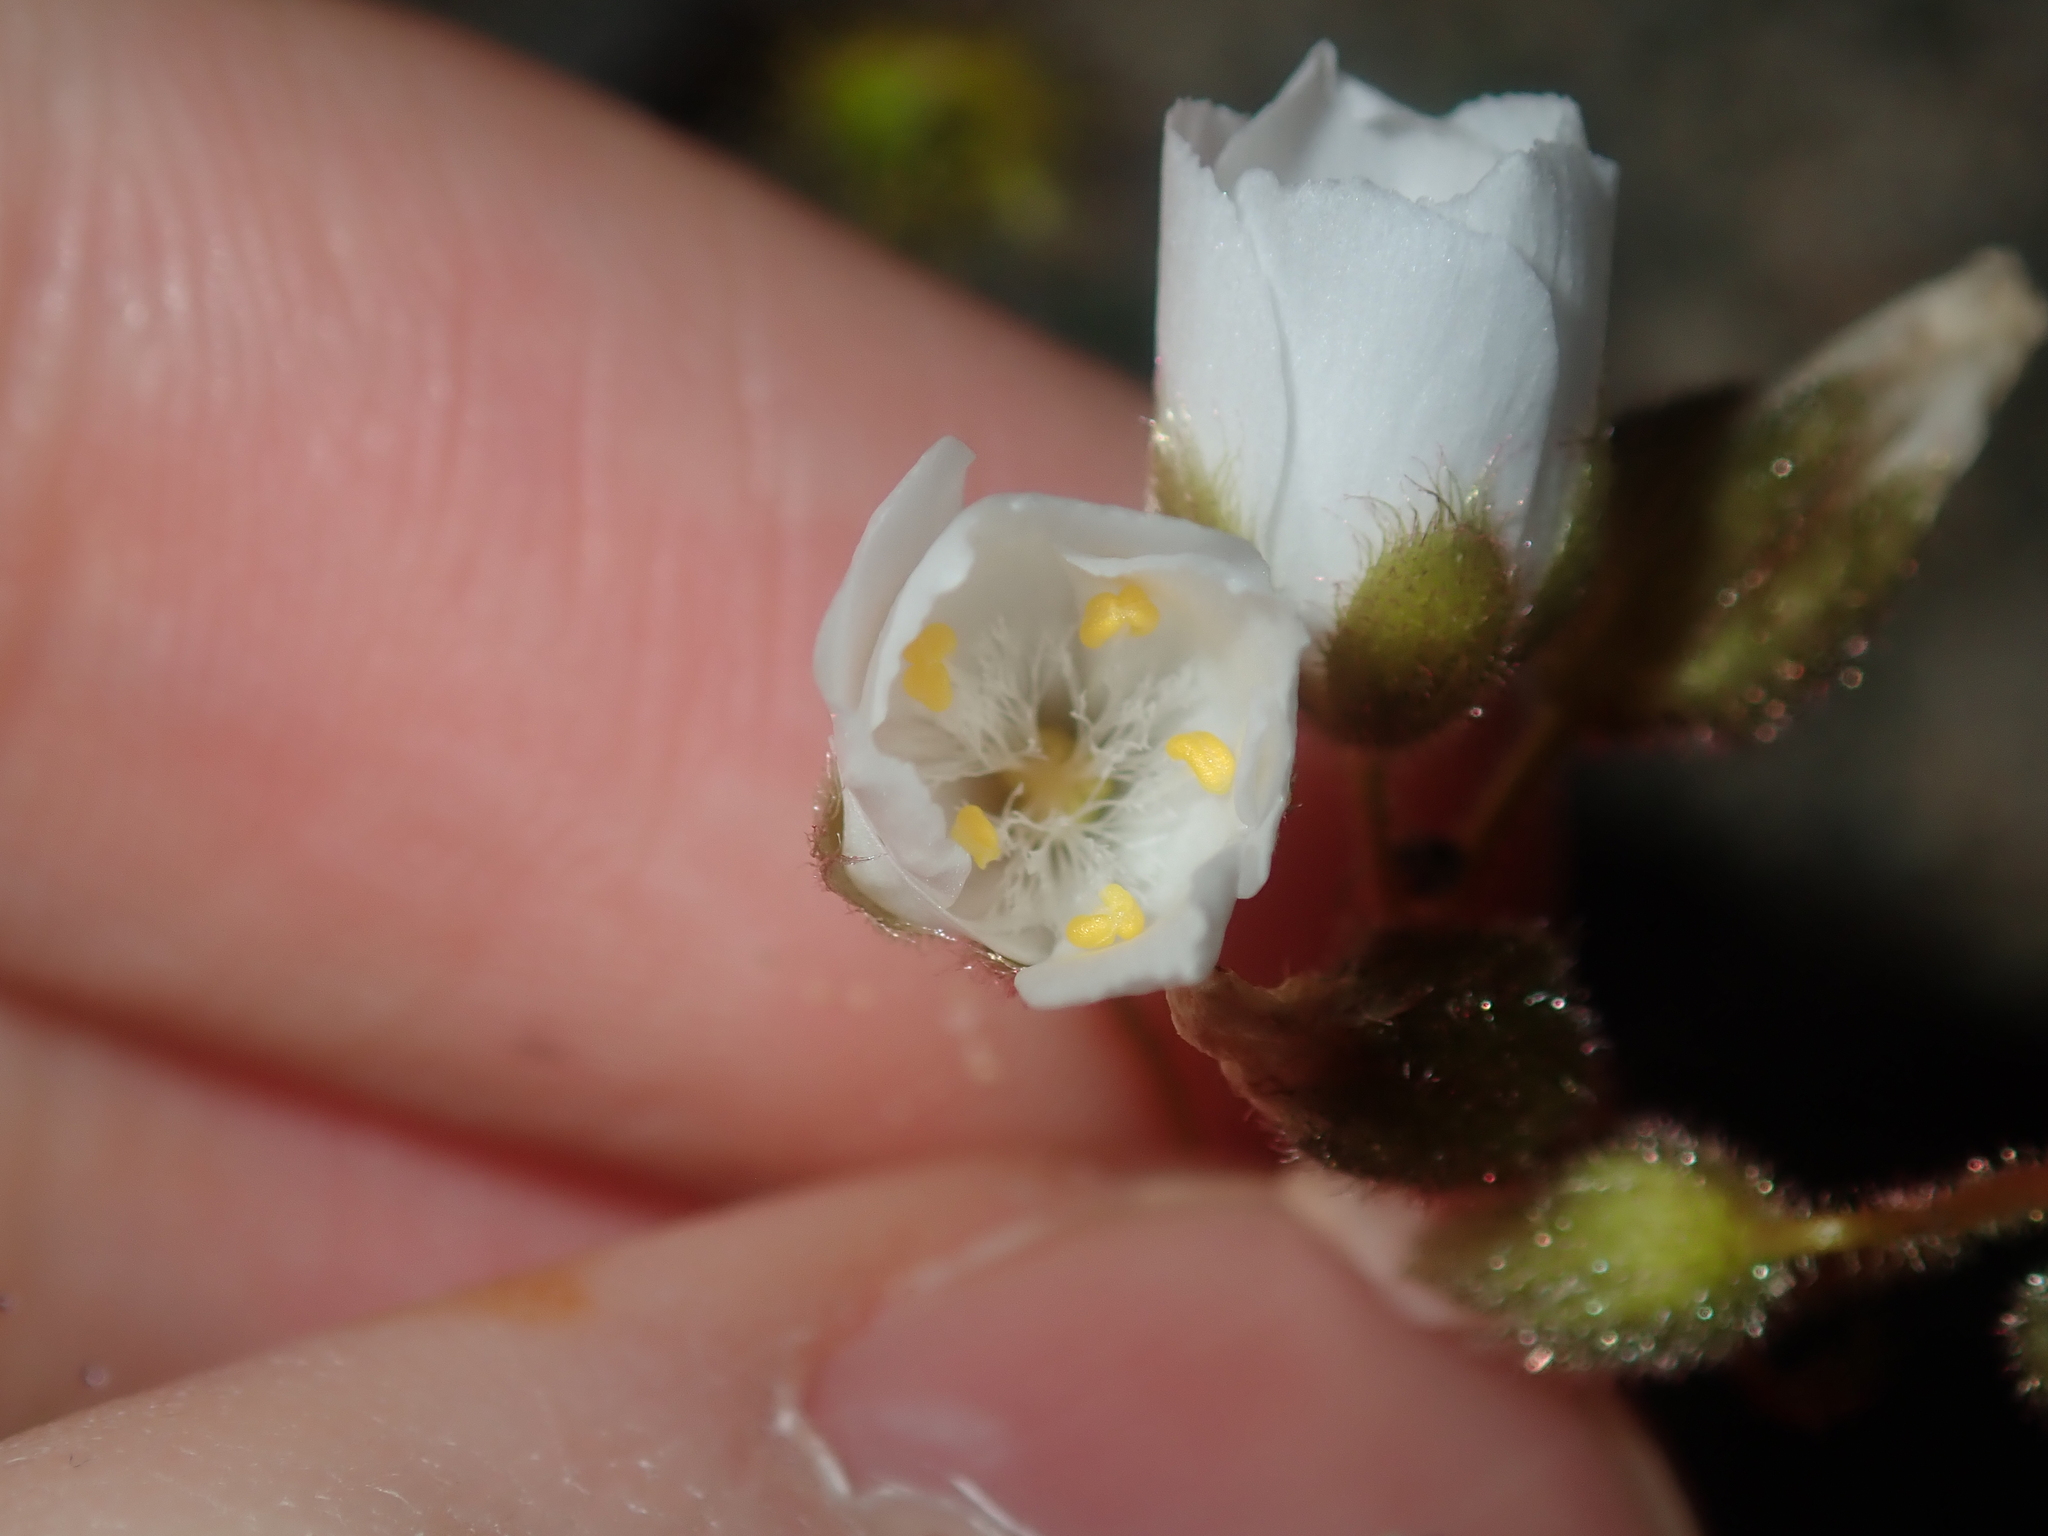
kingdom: Plantae
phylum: Tracheophyta
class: Magnoliopsida
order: Caryophyllales
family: Droseraceae
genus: Drosera
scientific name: Drosera hirsuta
